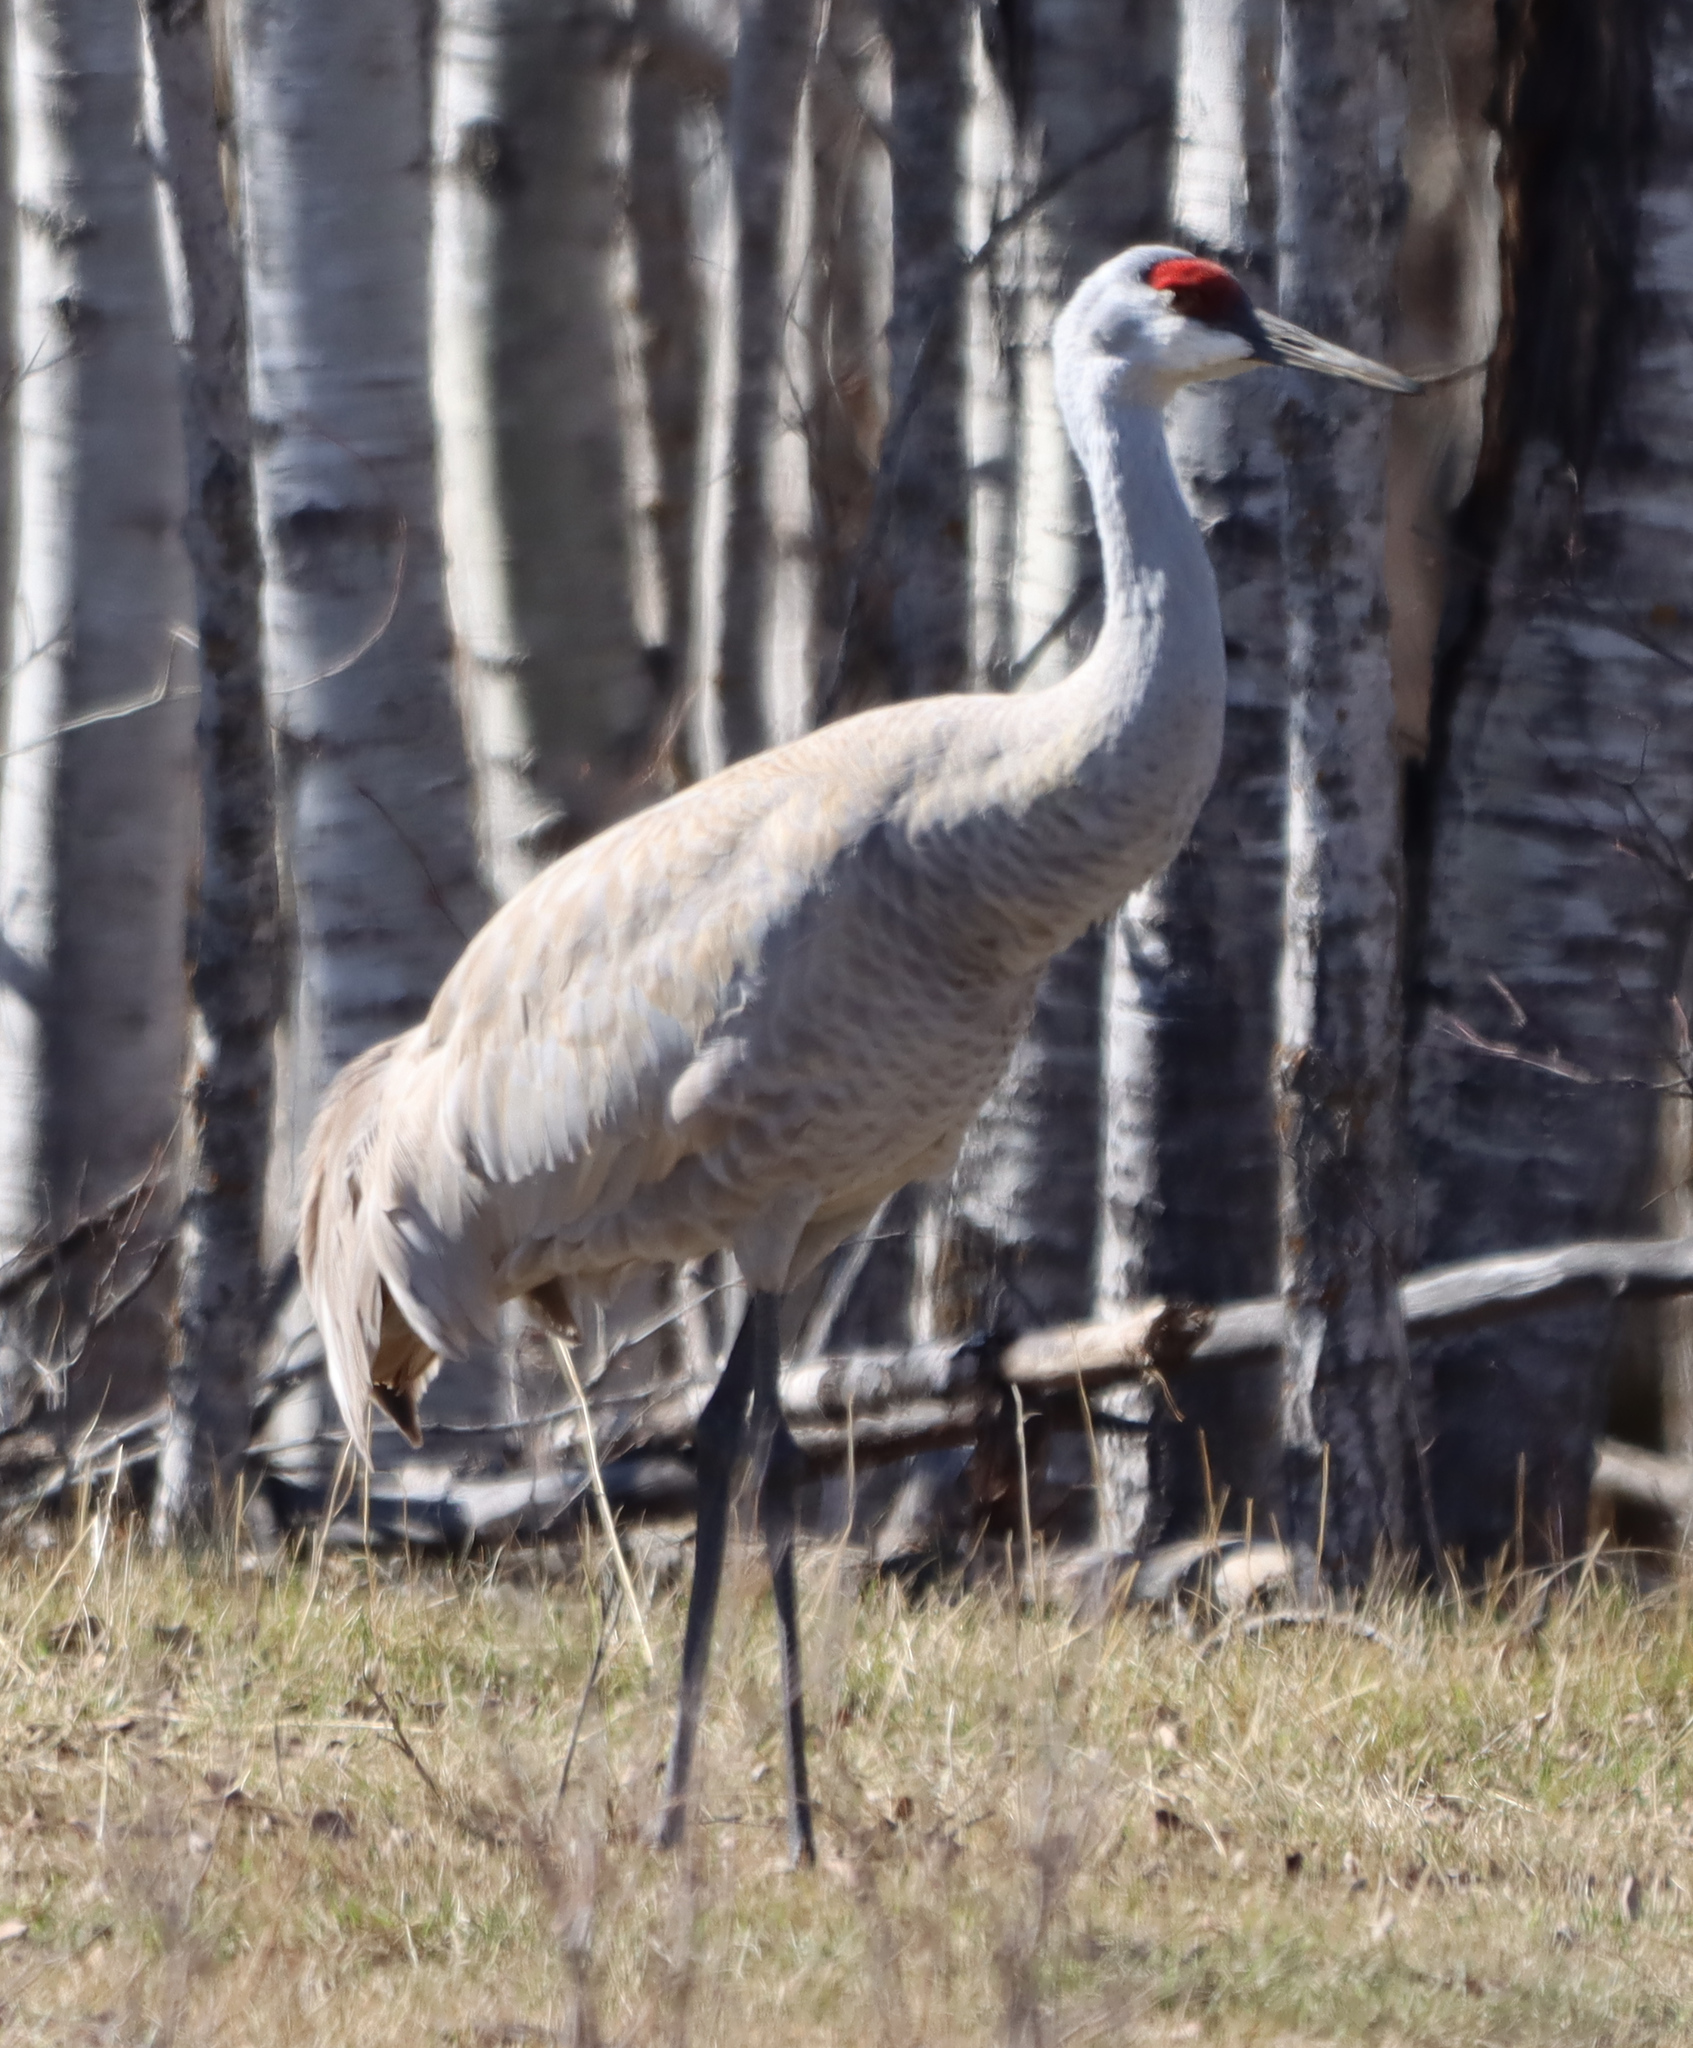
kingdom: Animalia
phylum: Chordata
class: Aves
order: Gruiformes
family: Gruidae
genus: Grus
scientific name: Grus canadensis
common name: Sandhill crane
